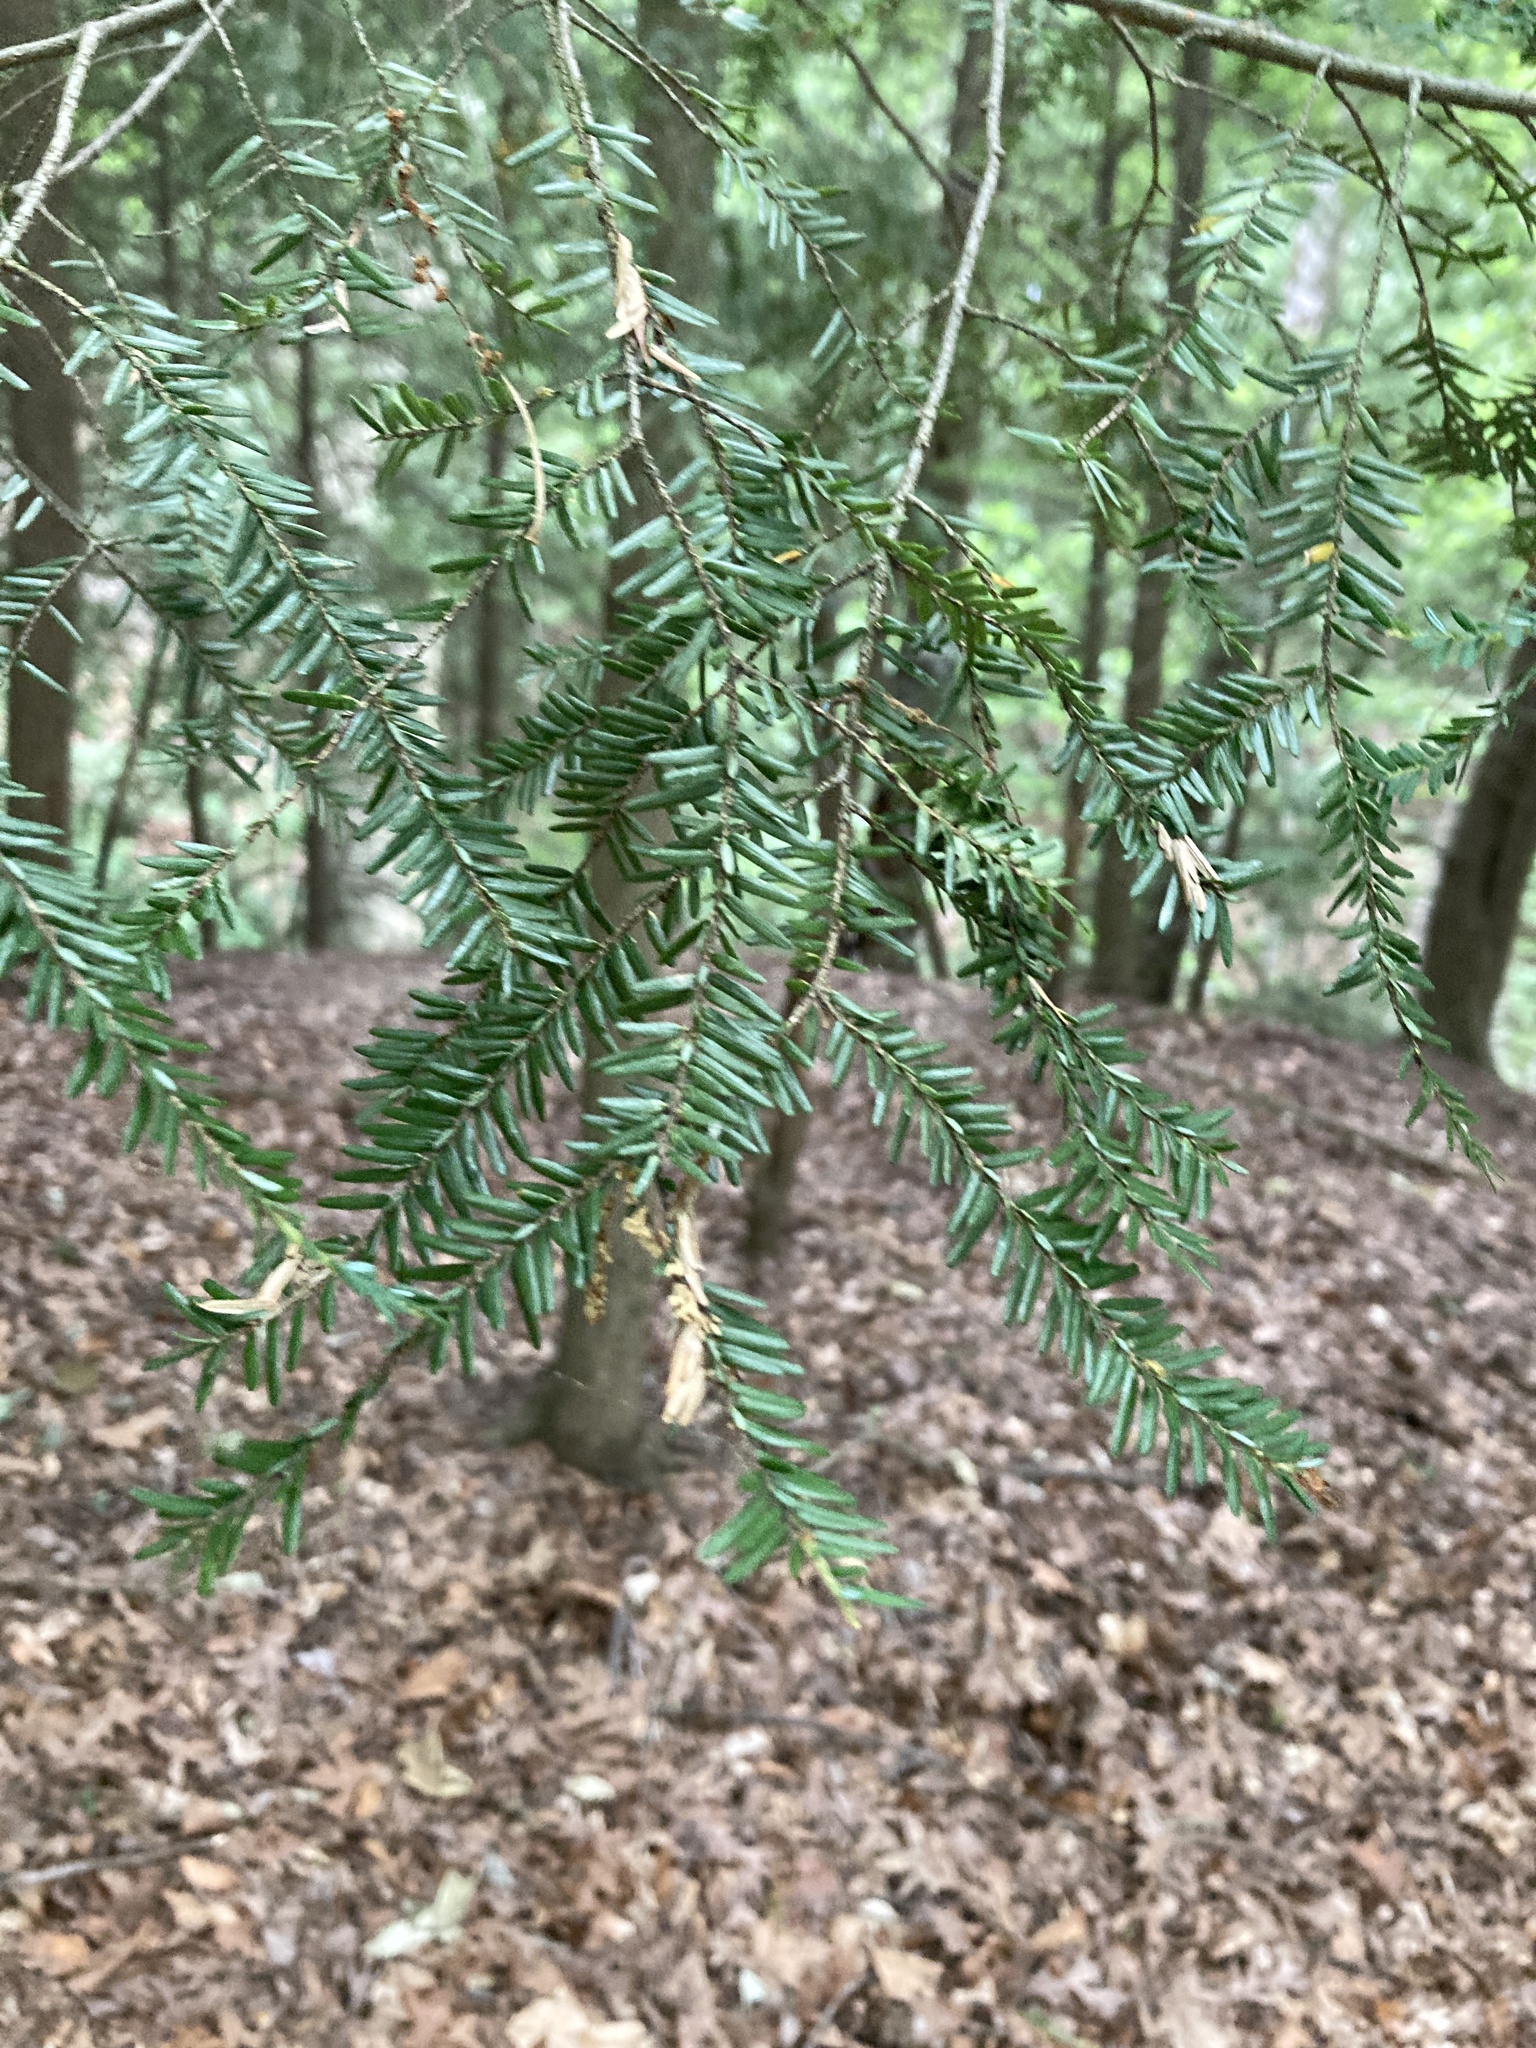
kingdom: Plantae
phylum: Tracheophyta
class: Pinopsida
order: Pinales
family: Pinaceae
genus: Tsuga
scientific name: Tsuga canadensis
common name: Eastern hemlock
